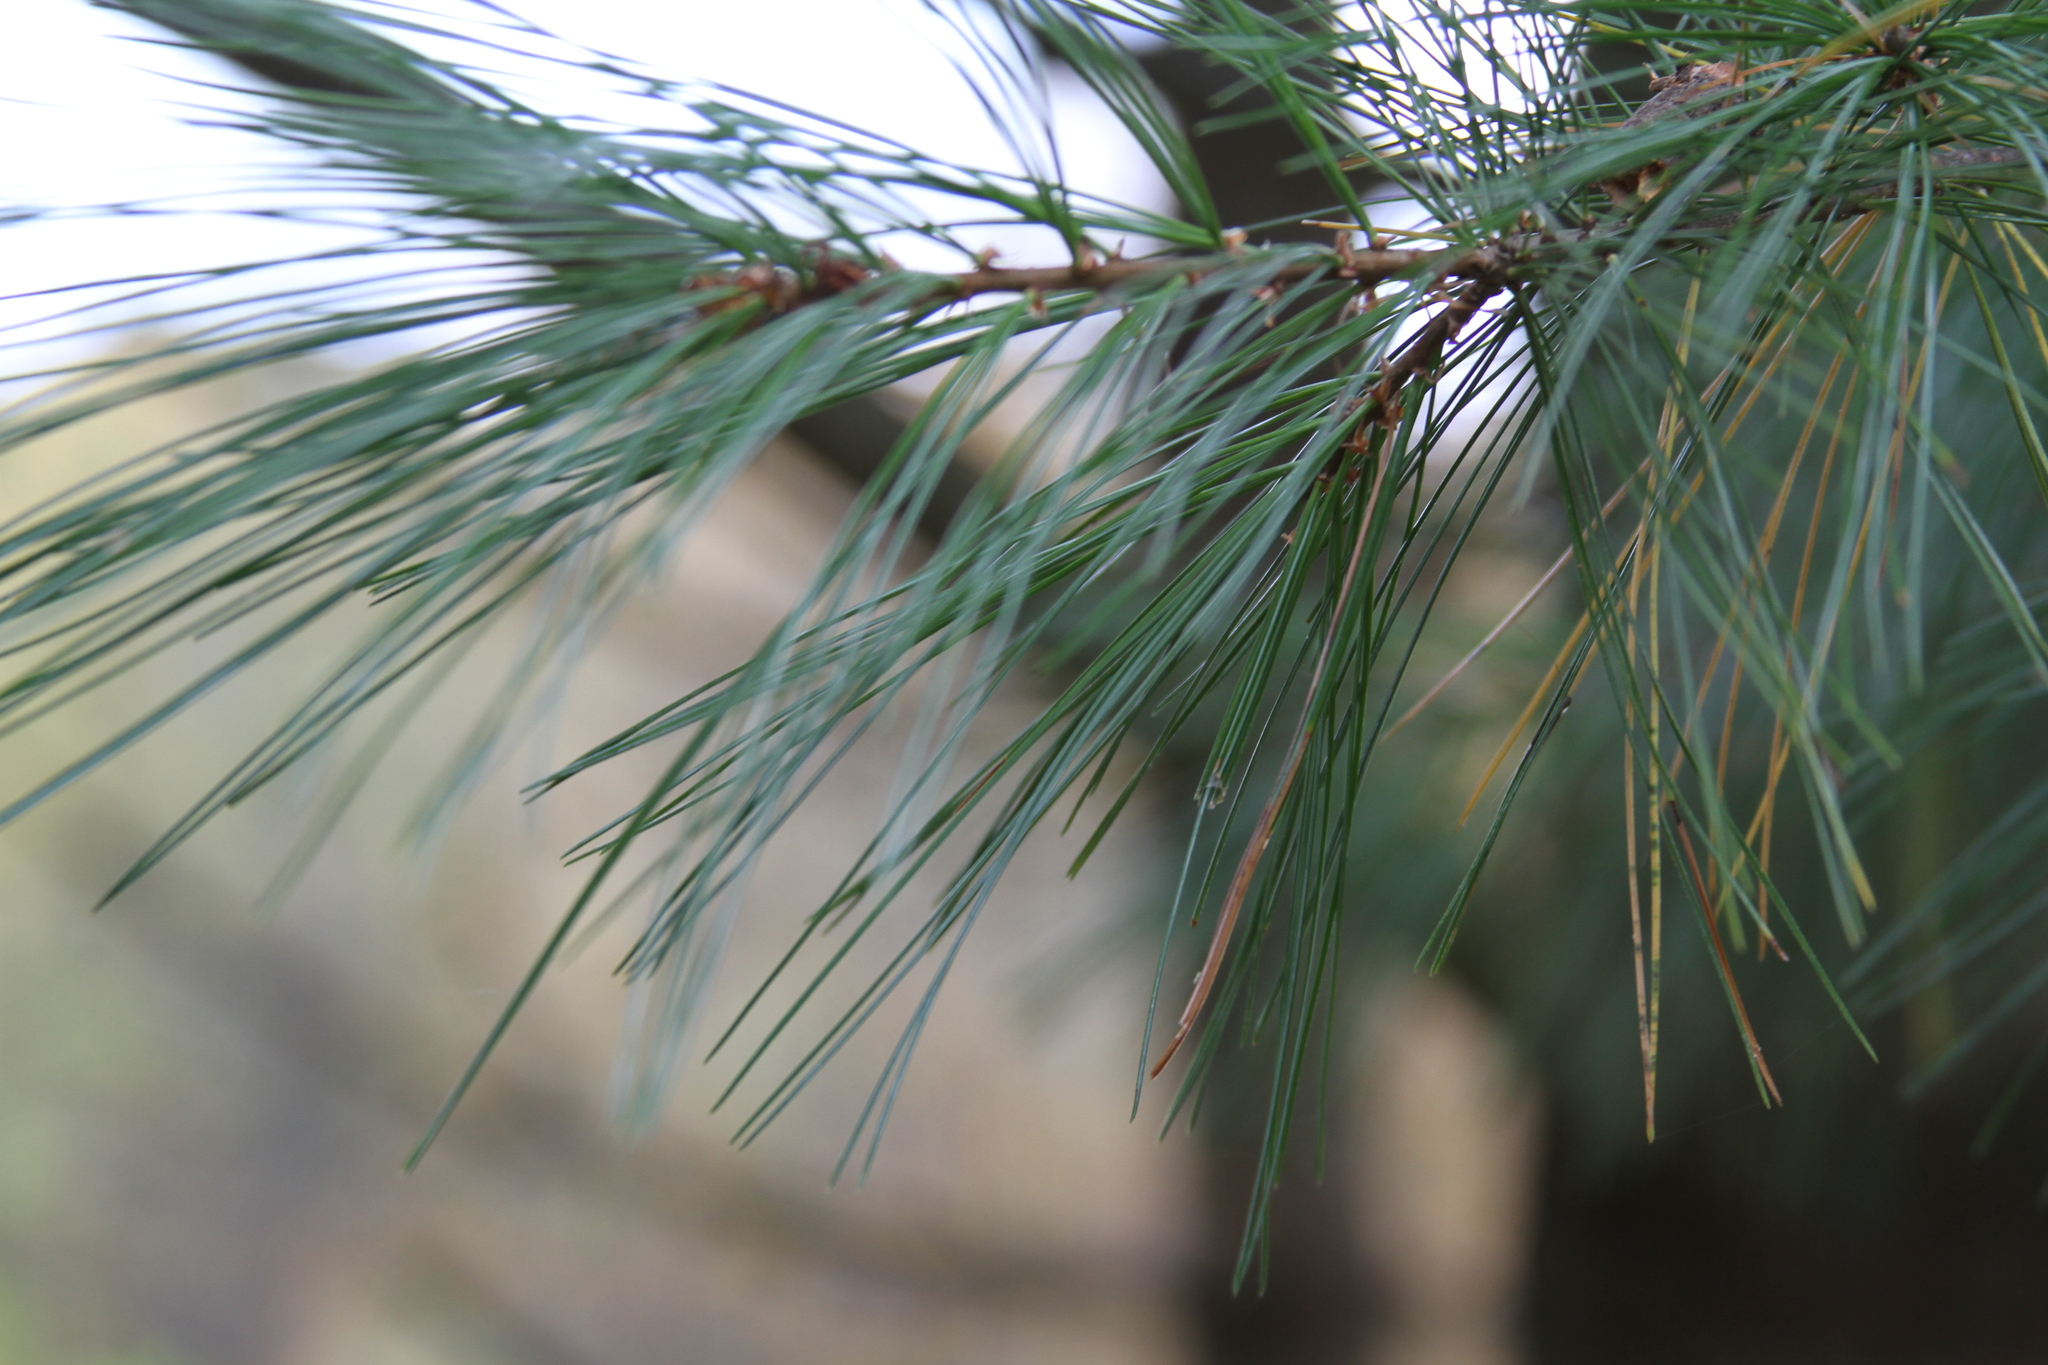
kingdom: Plantae
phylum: Tracheophyta
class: Pinopsida
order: Pinales
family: Pinaceae
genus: Pinus
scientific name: Pinus strobus
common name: Weymouth pine
